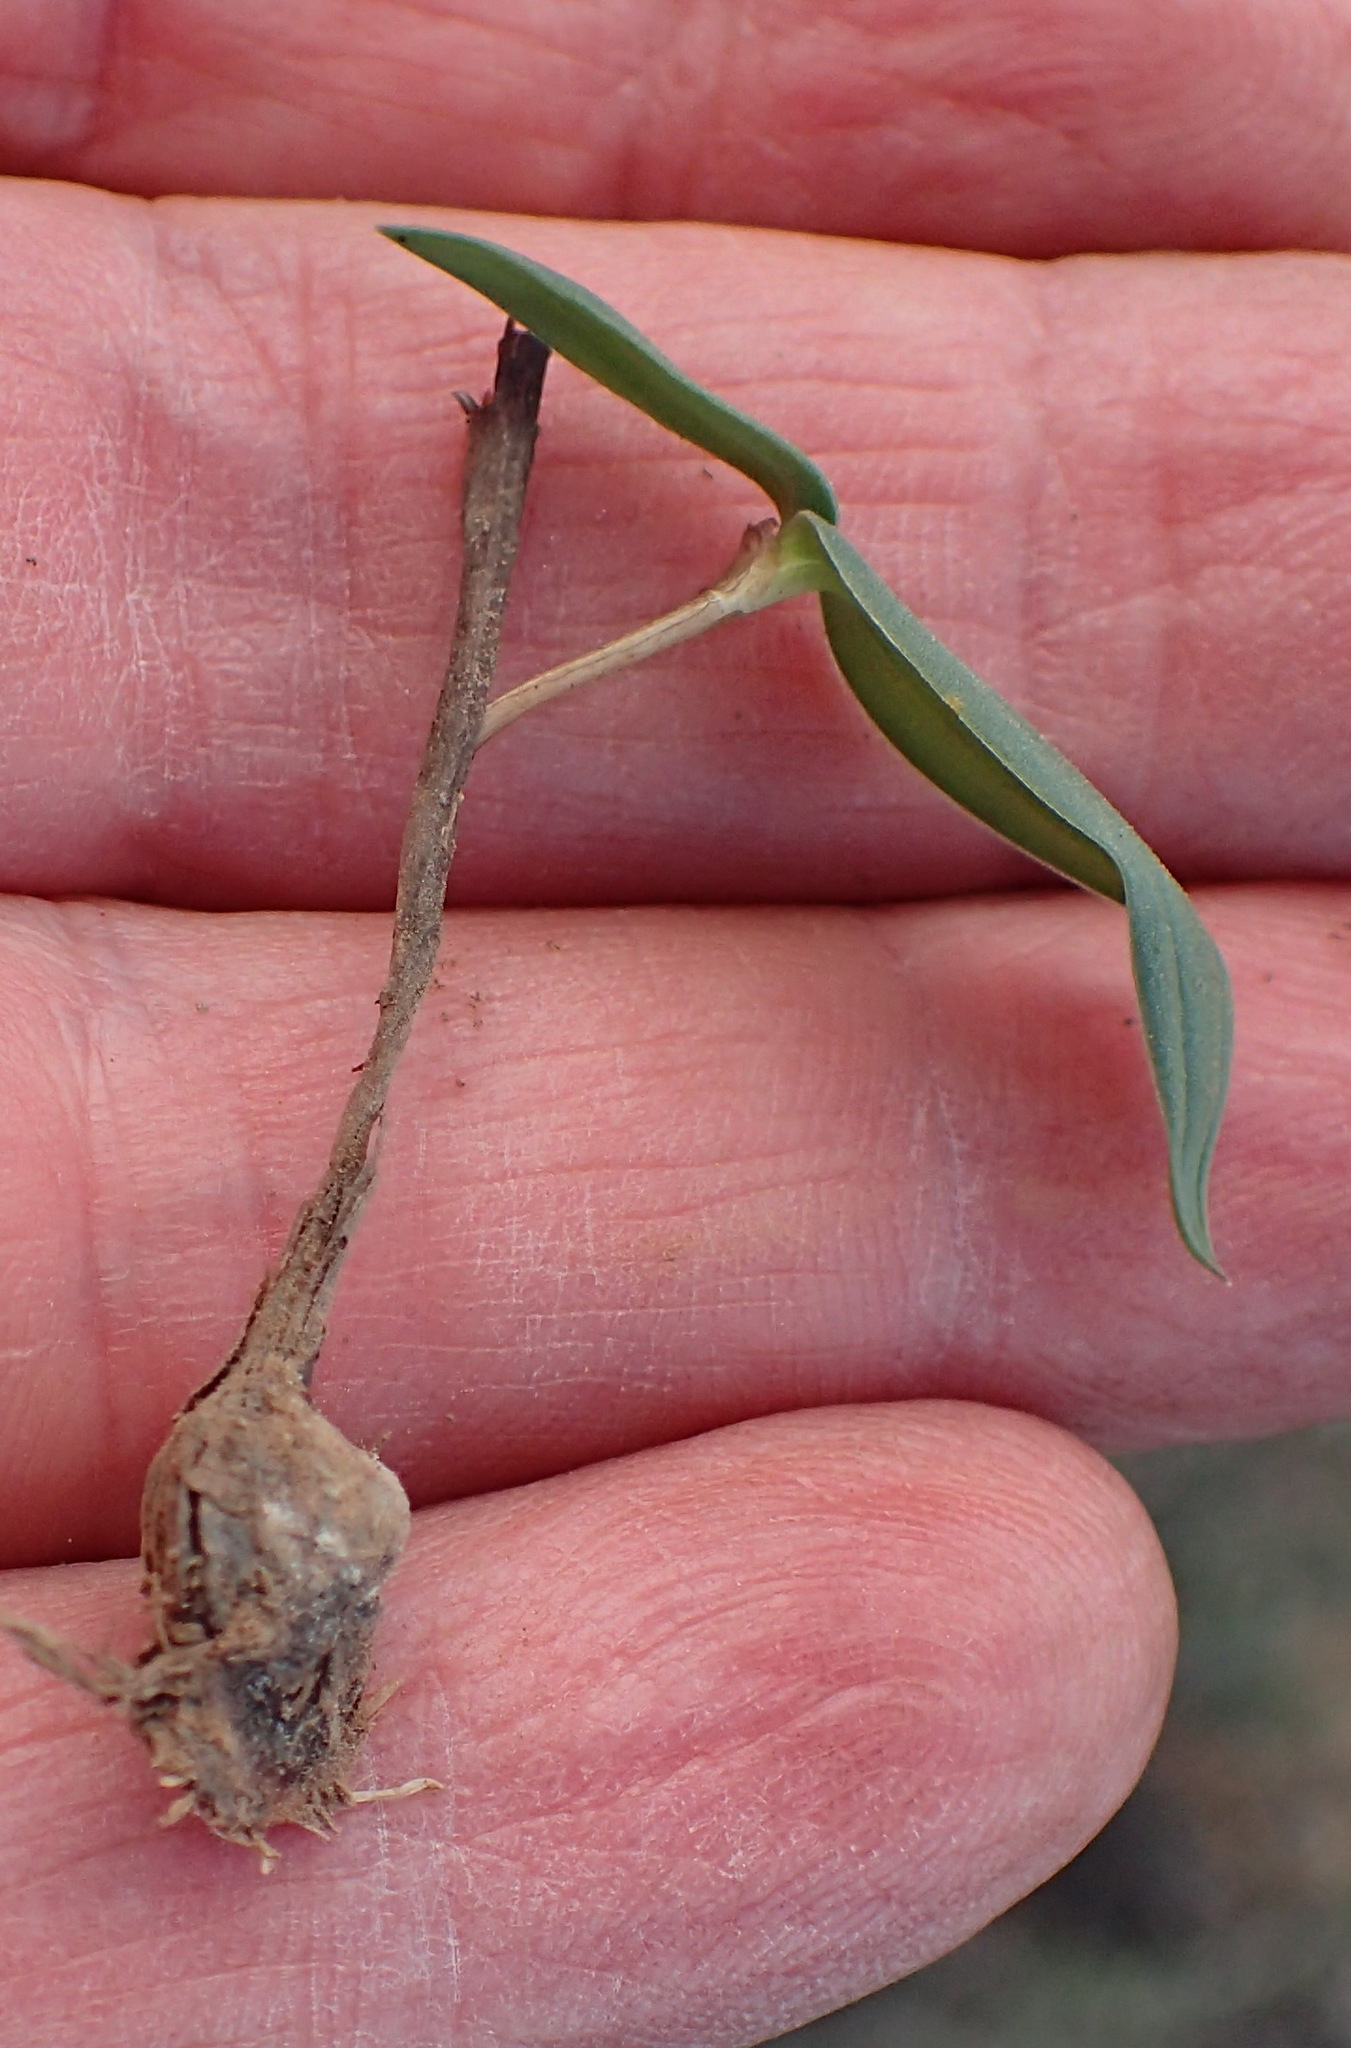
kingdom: Plantae
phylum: Tracheophyta
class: Liliopsida
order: Asparagales
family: Asparagaceae
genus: Drimia
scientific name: Drimia platyphylla
